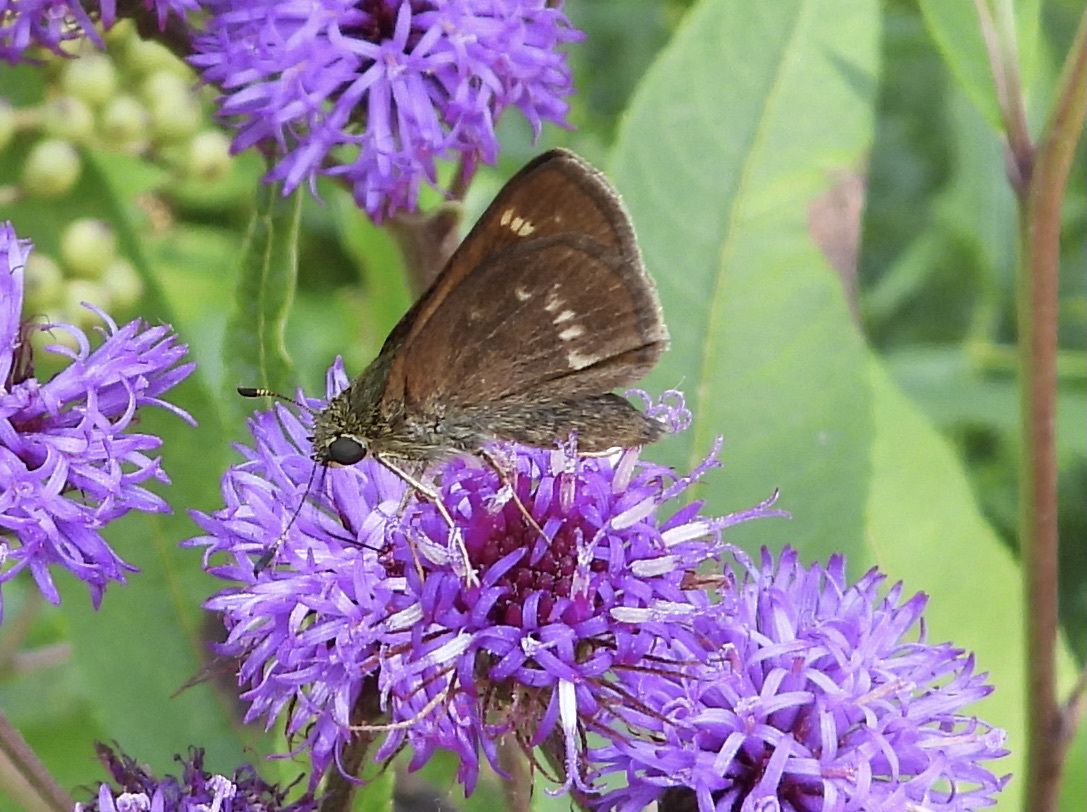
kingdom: Animalia
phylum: Arthropoda
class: Insecta
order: Lepidoptera
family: Hesperiidae
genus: Vernia
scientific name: Vernia verna
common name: Little glassywing
